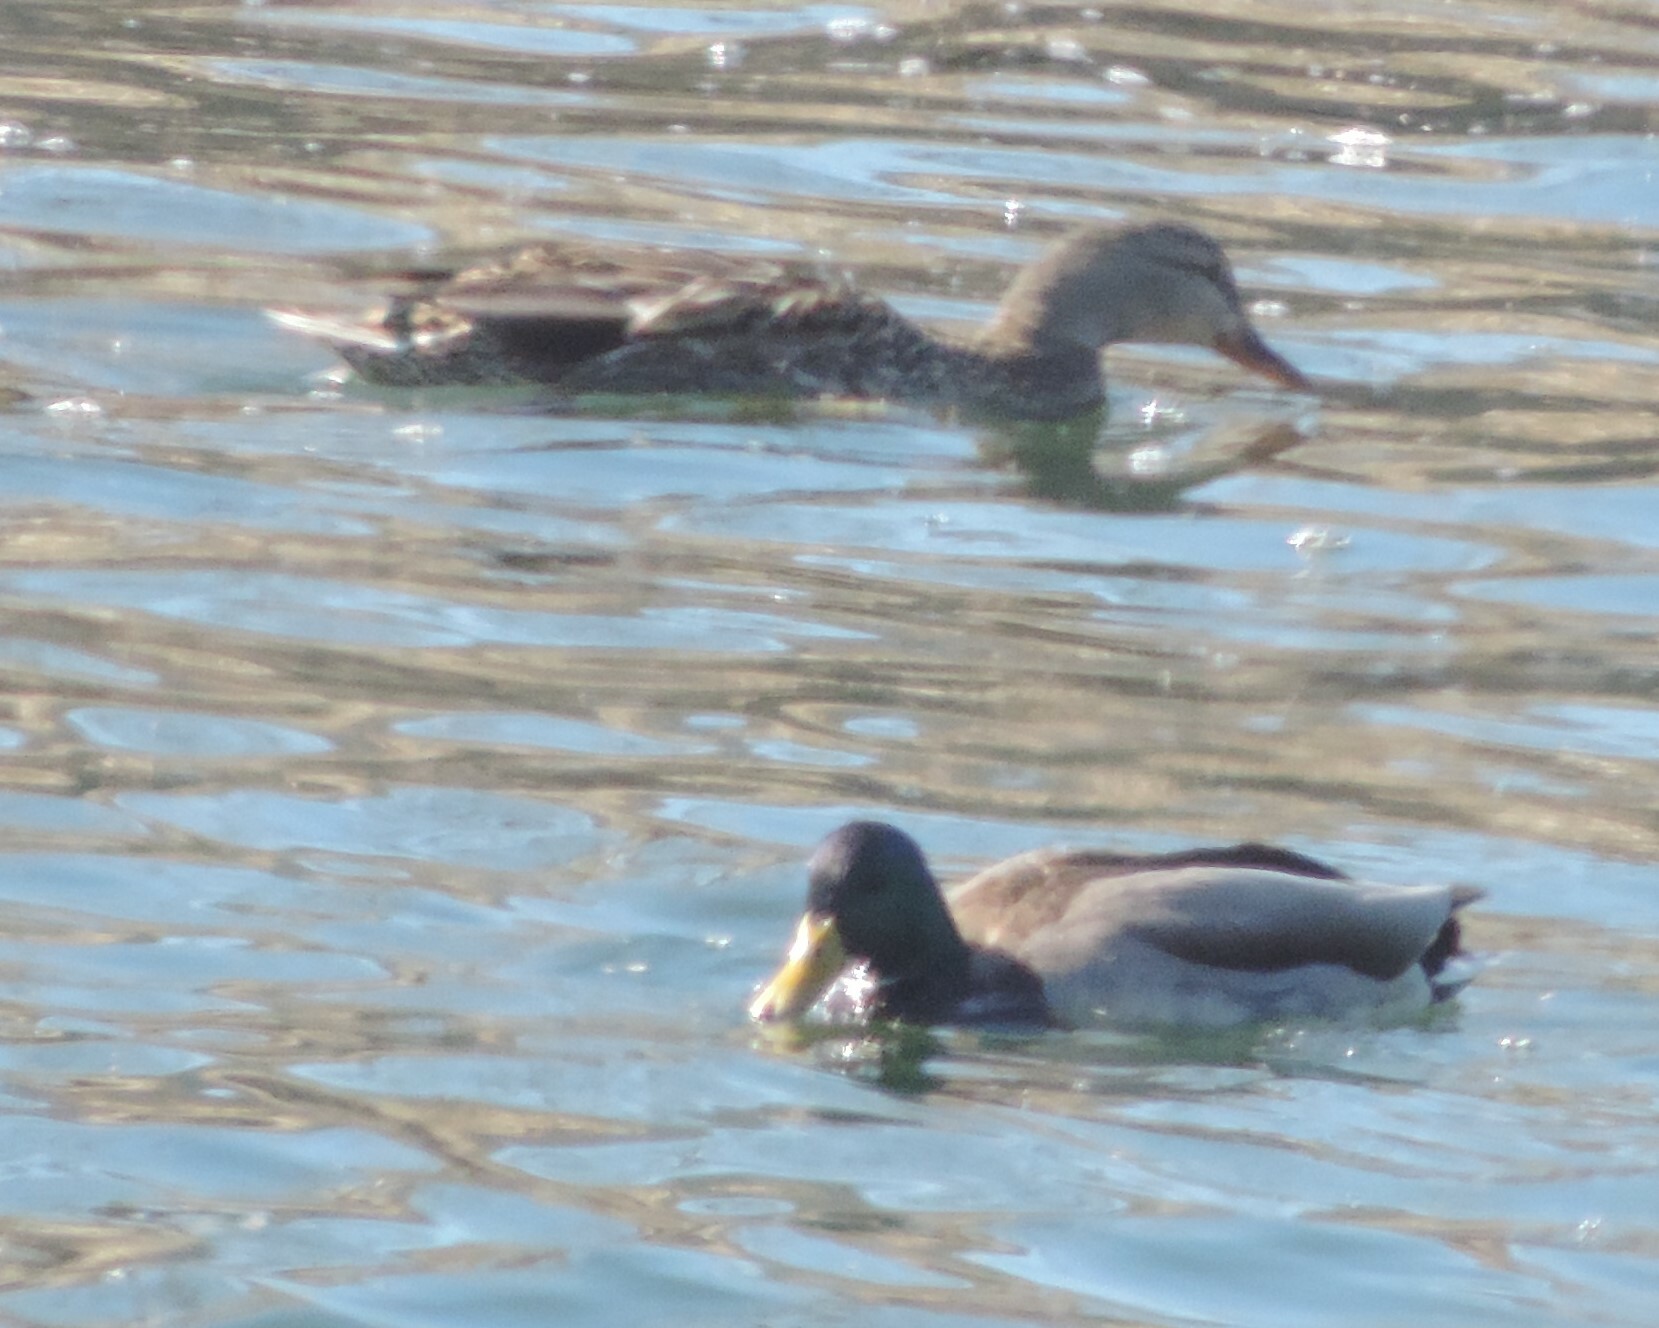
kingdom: Animalia
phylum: Chordata
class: Aves
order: Anseriformes
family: Anatidae
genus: Anas
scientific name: Anas platyrhynchos
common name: Mallard
